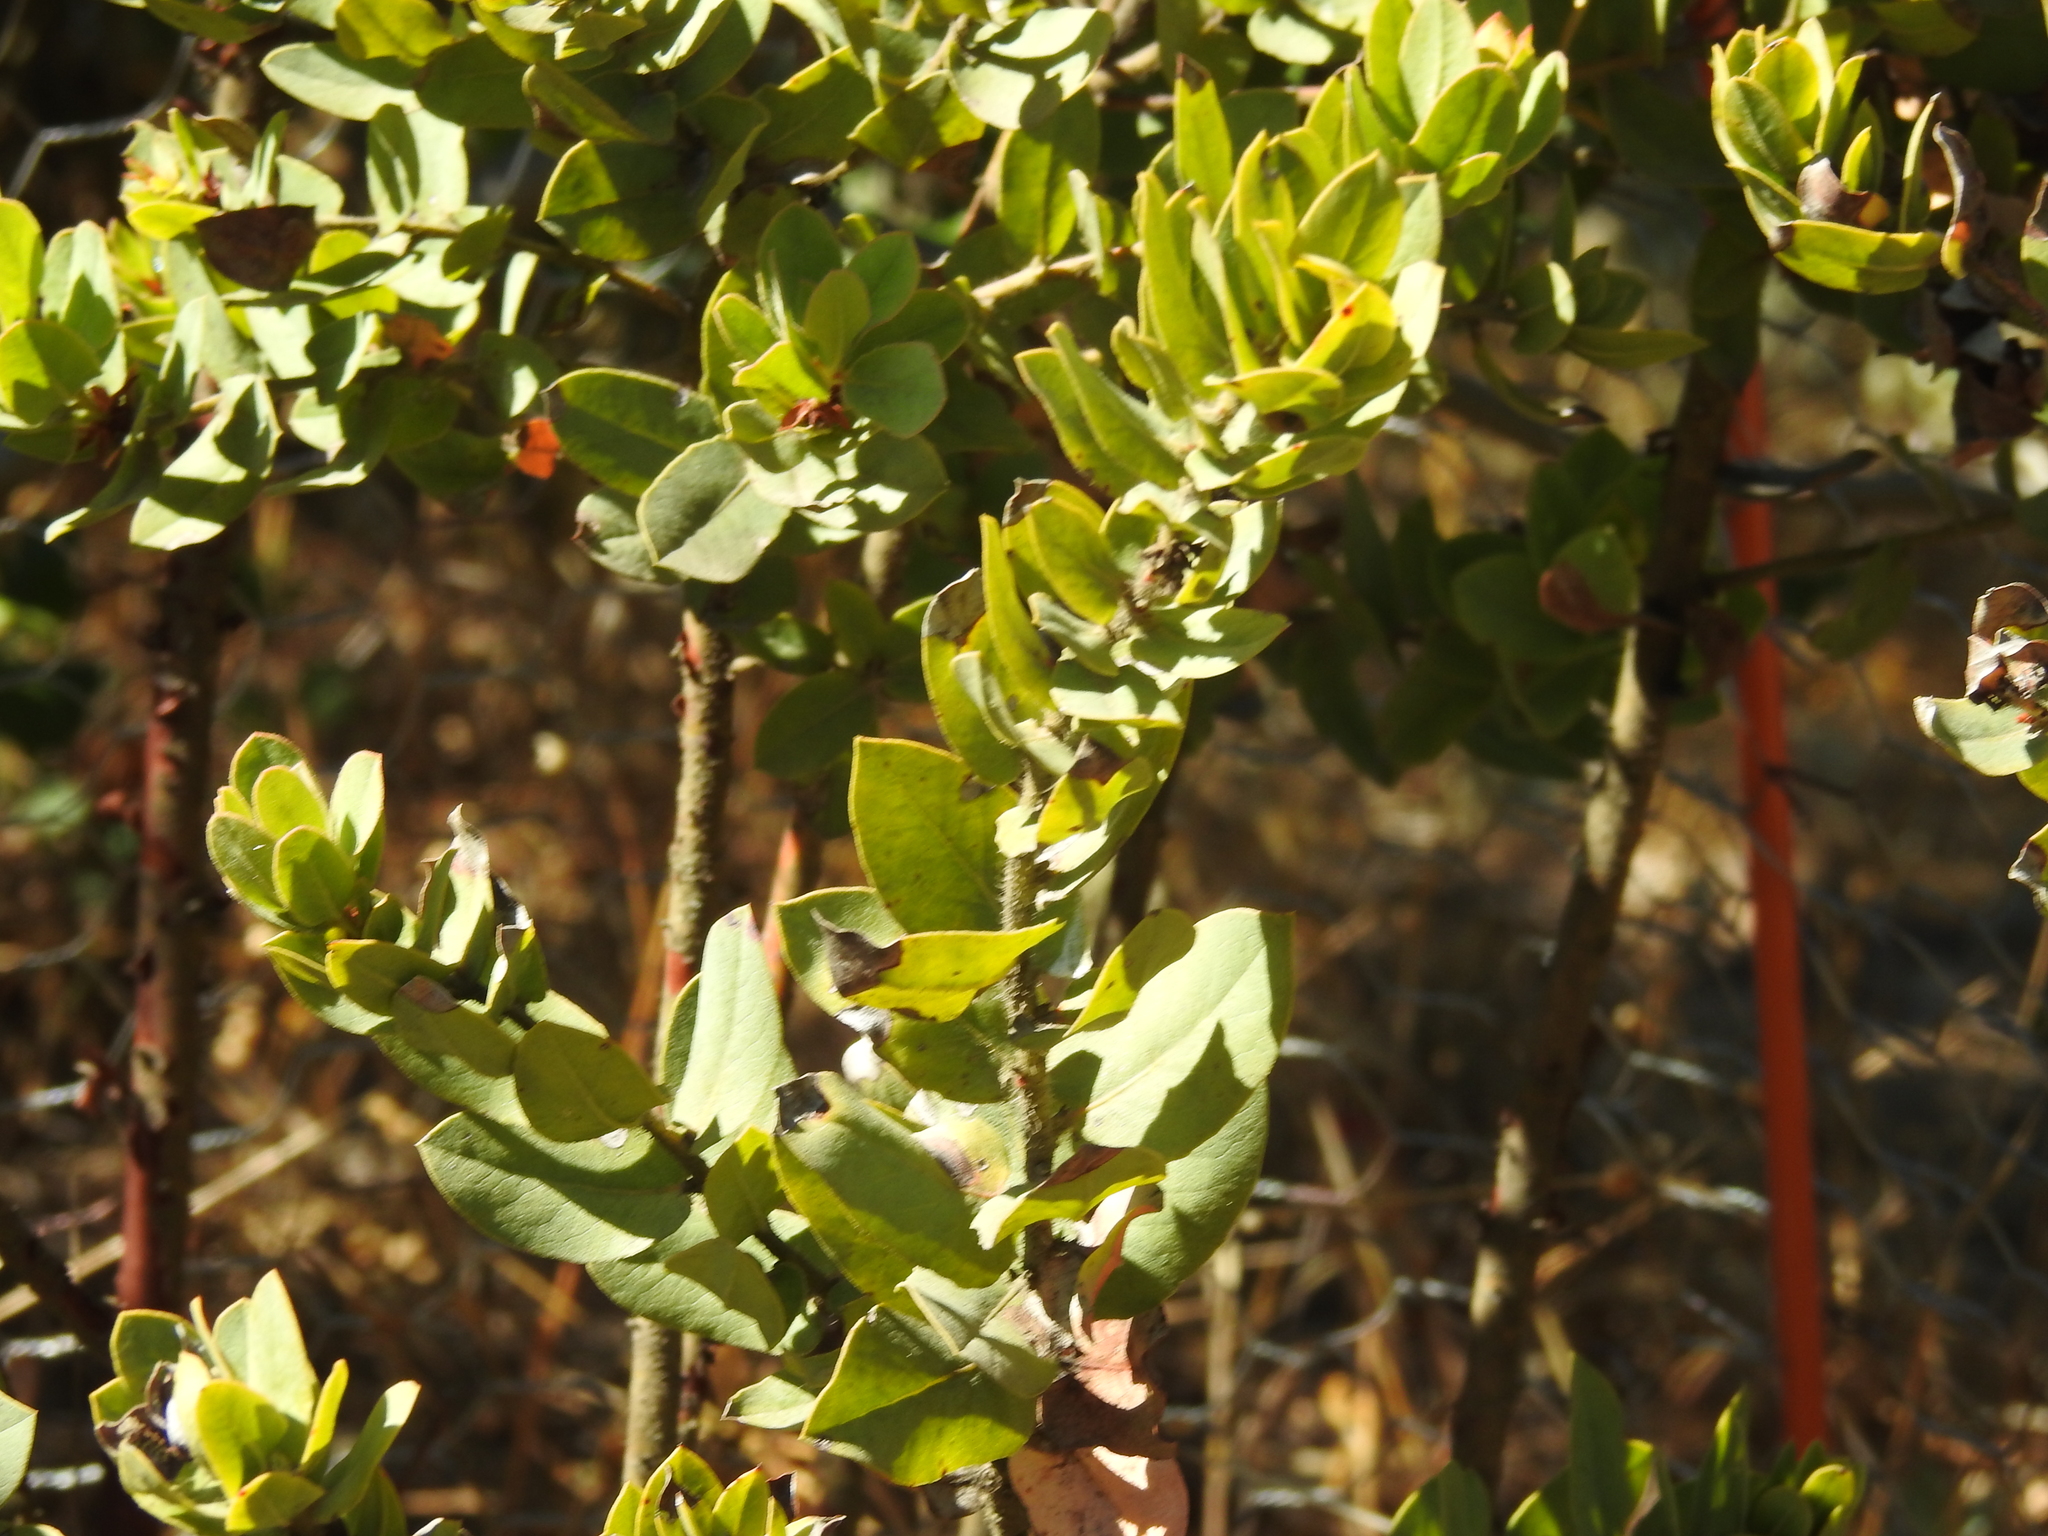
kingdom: Plantae
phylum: Tracheophyta
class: Magnoliopsida
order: Ericales
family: Ericaceae
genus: Arctostaphylos
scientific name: Arctostaphylos pallida
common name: Pallid manzanita
